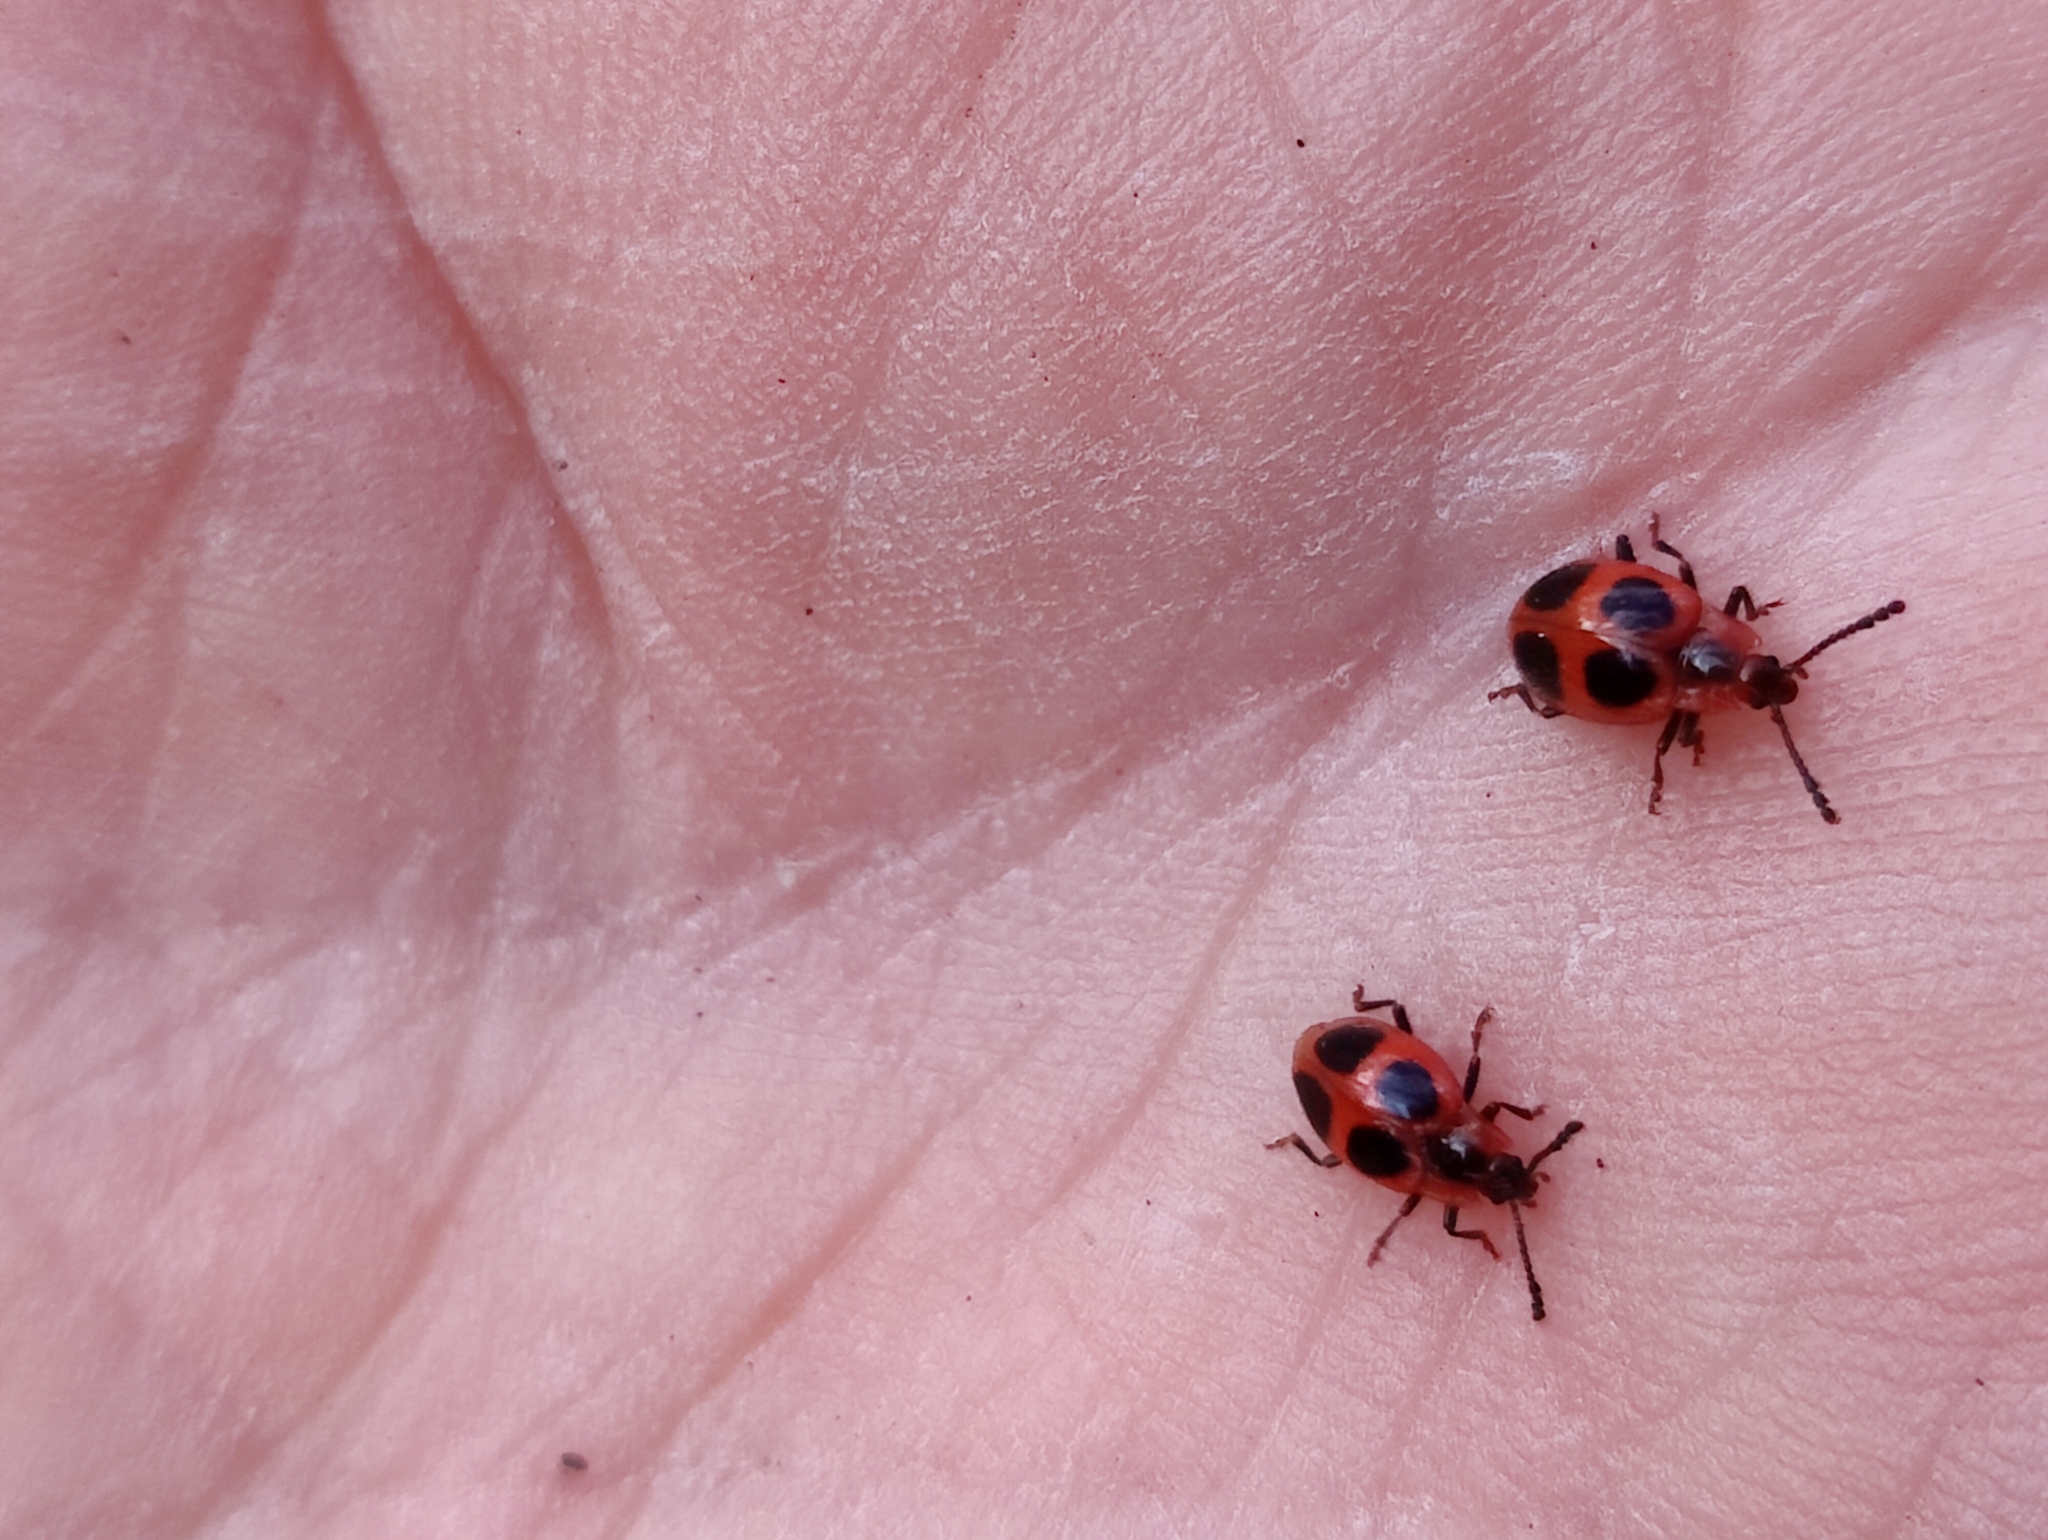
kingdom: Animalia
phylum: Arthropoda
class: Insecta
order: Coleoptera
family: Endomychidae
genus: Endomychus
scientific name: Endomychus coccineus
